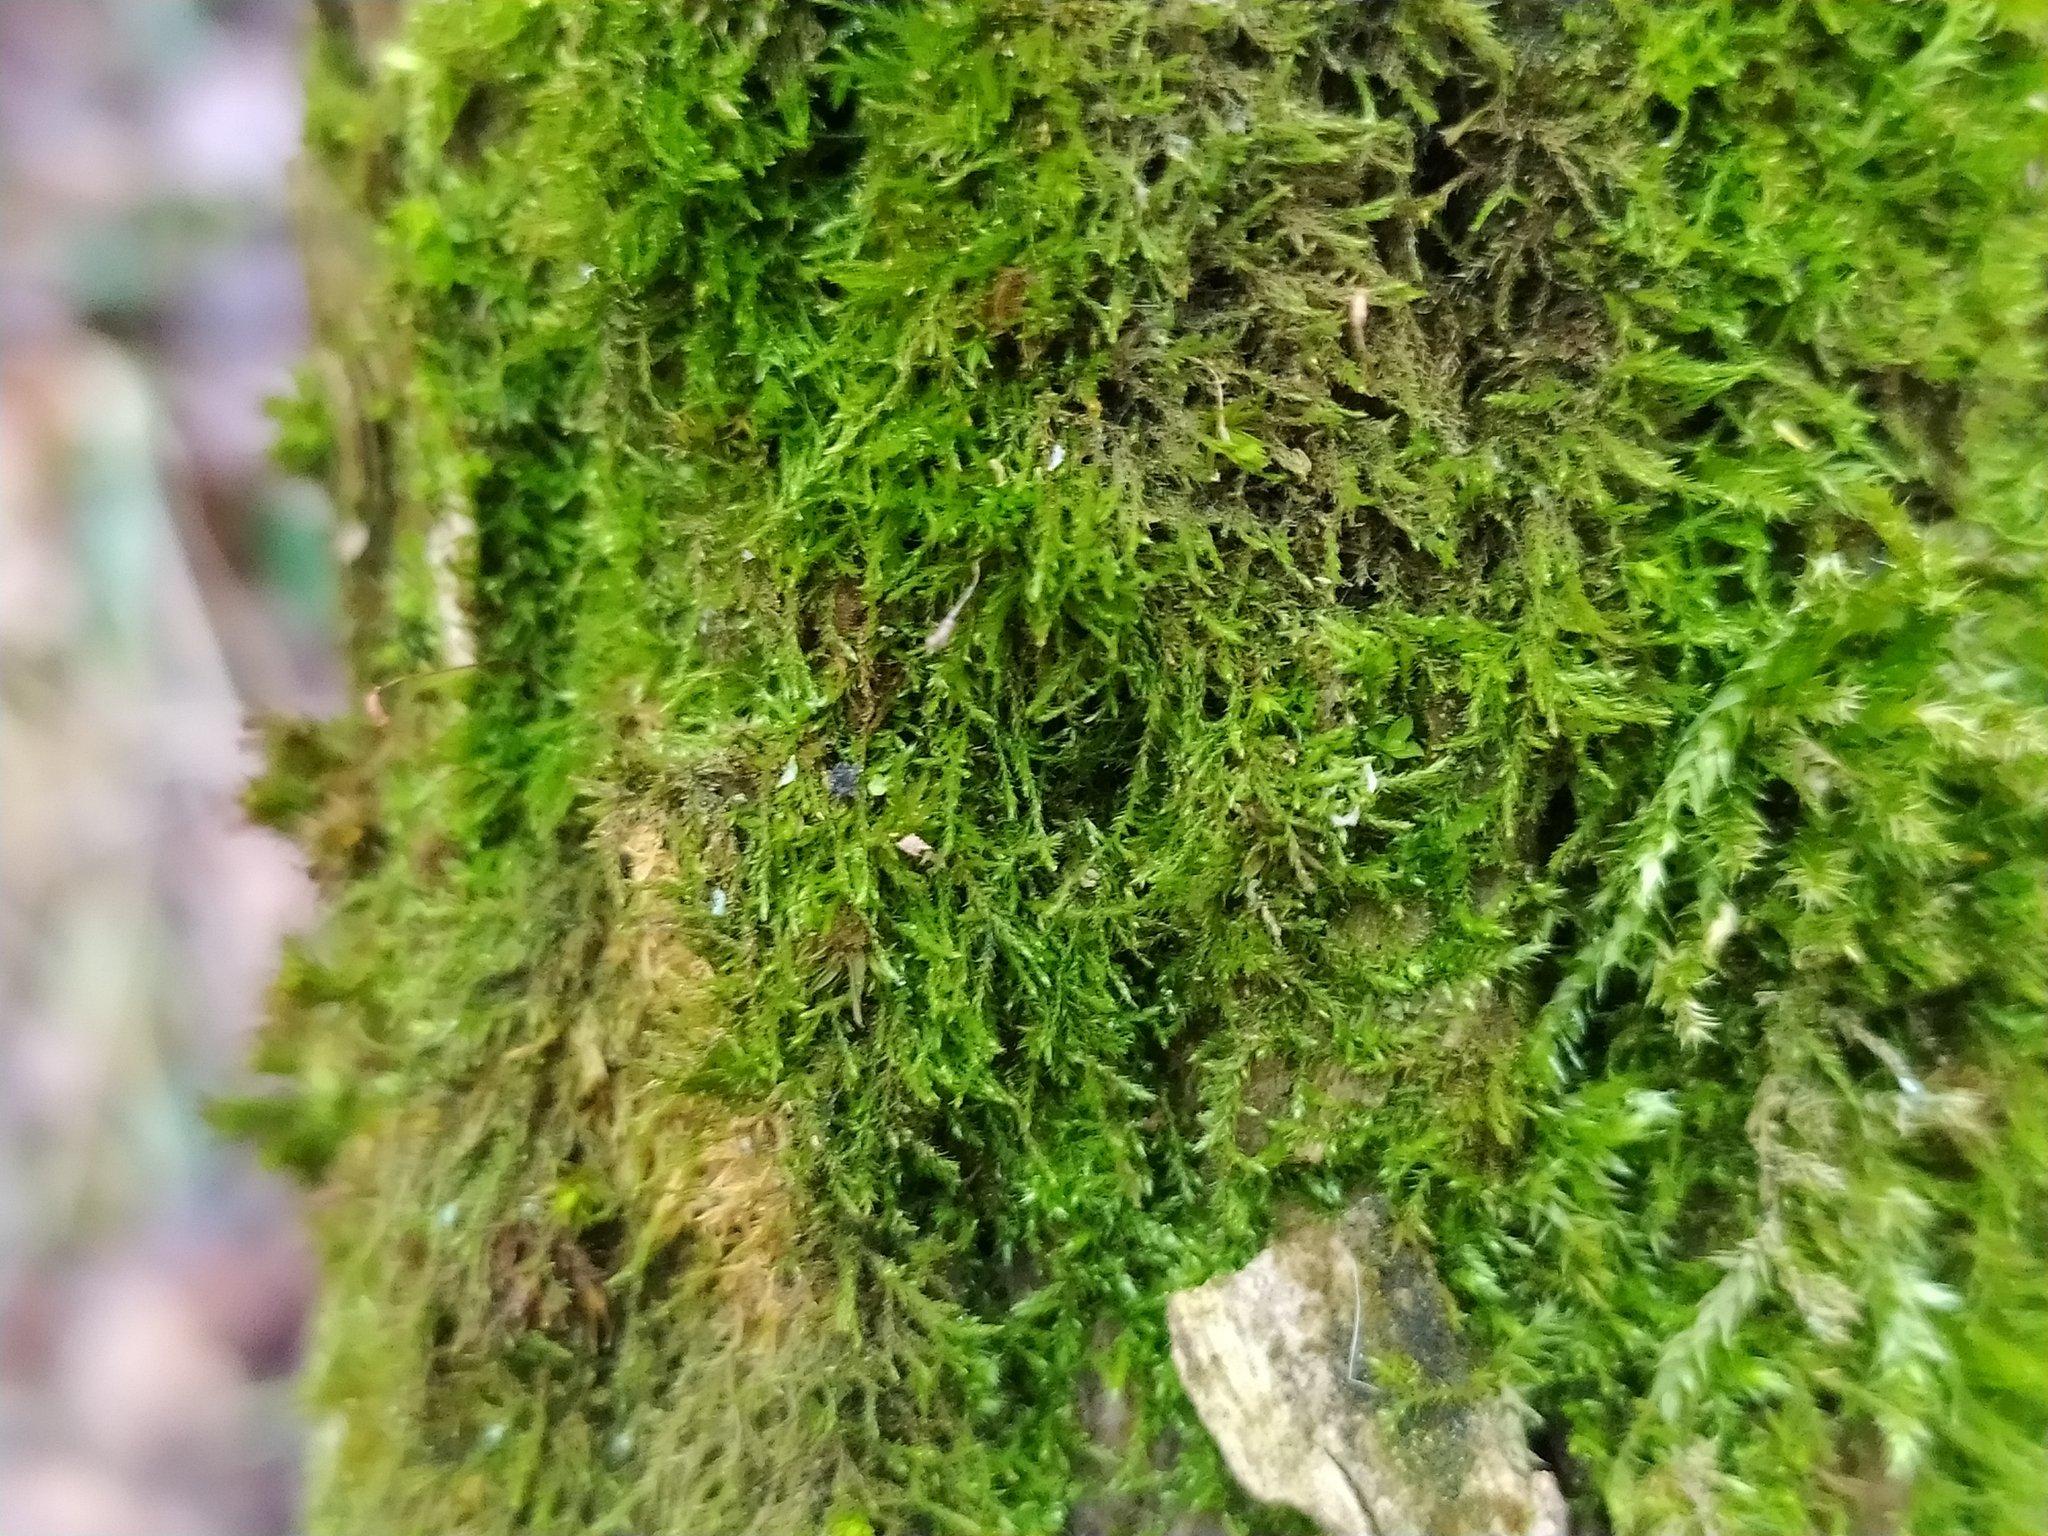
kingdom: Plantae
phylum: Bryophyta
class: Bryopsida
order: Hypnales
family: Amblystegiaceae
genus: Amblystegium
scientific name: Amblystegium serpens
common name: Jurkatzka's feather moss
